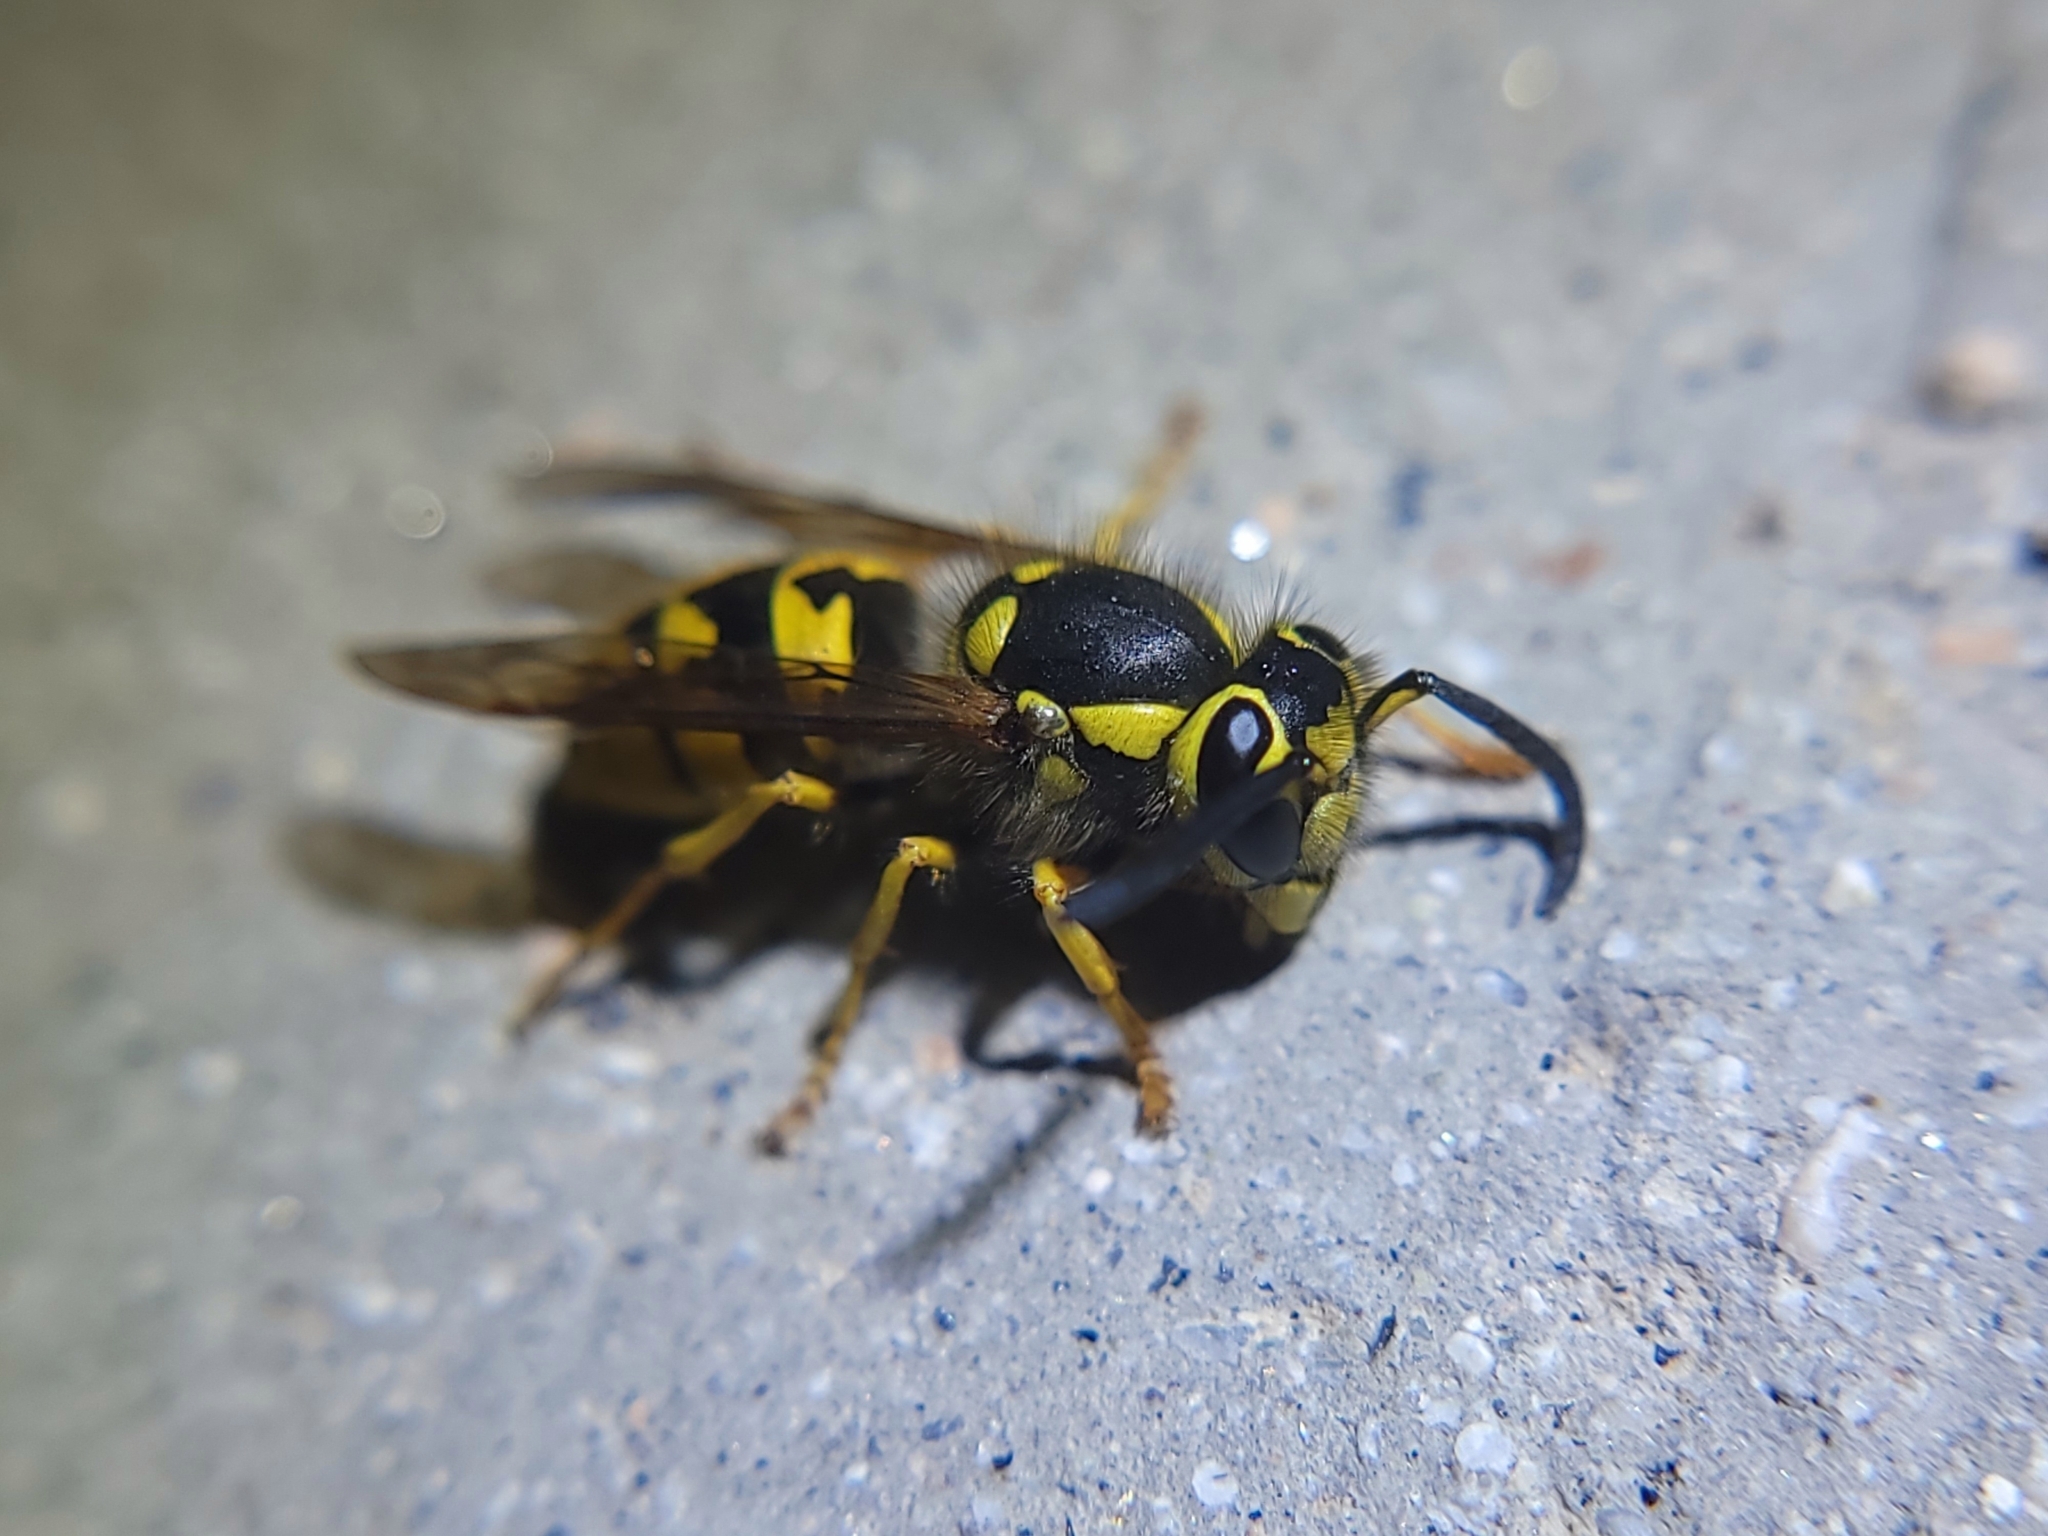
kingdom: Animalia
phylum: Arthropoda
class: Insecta
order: Hymenoptera
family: Vespidae
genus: Vespula
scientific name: Vespula pensylvanica
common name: Western yellowjacket
